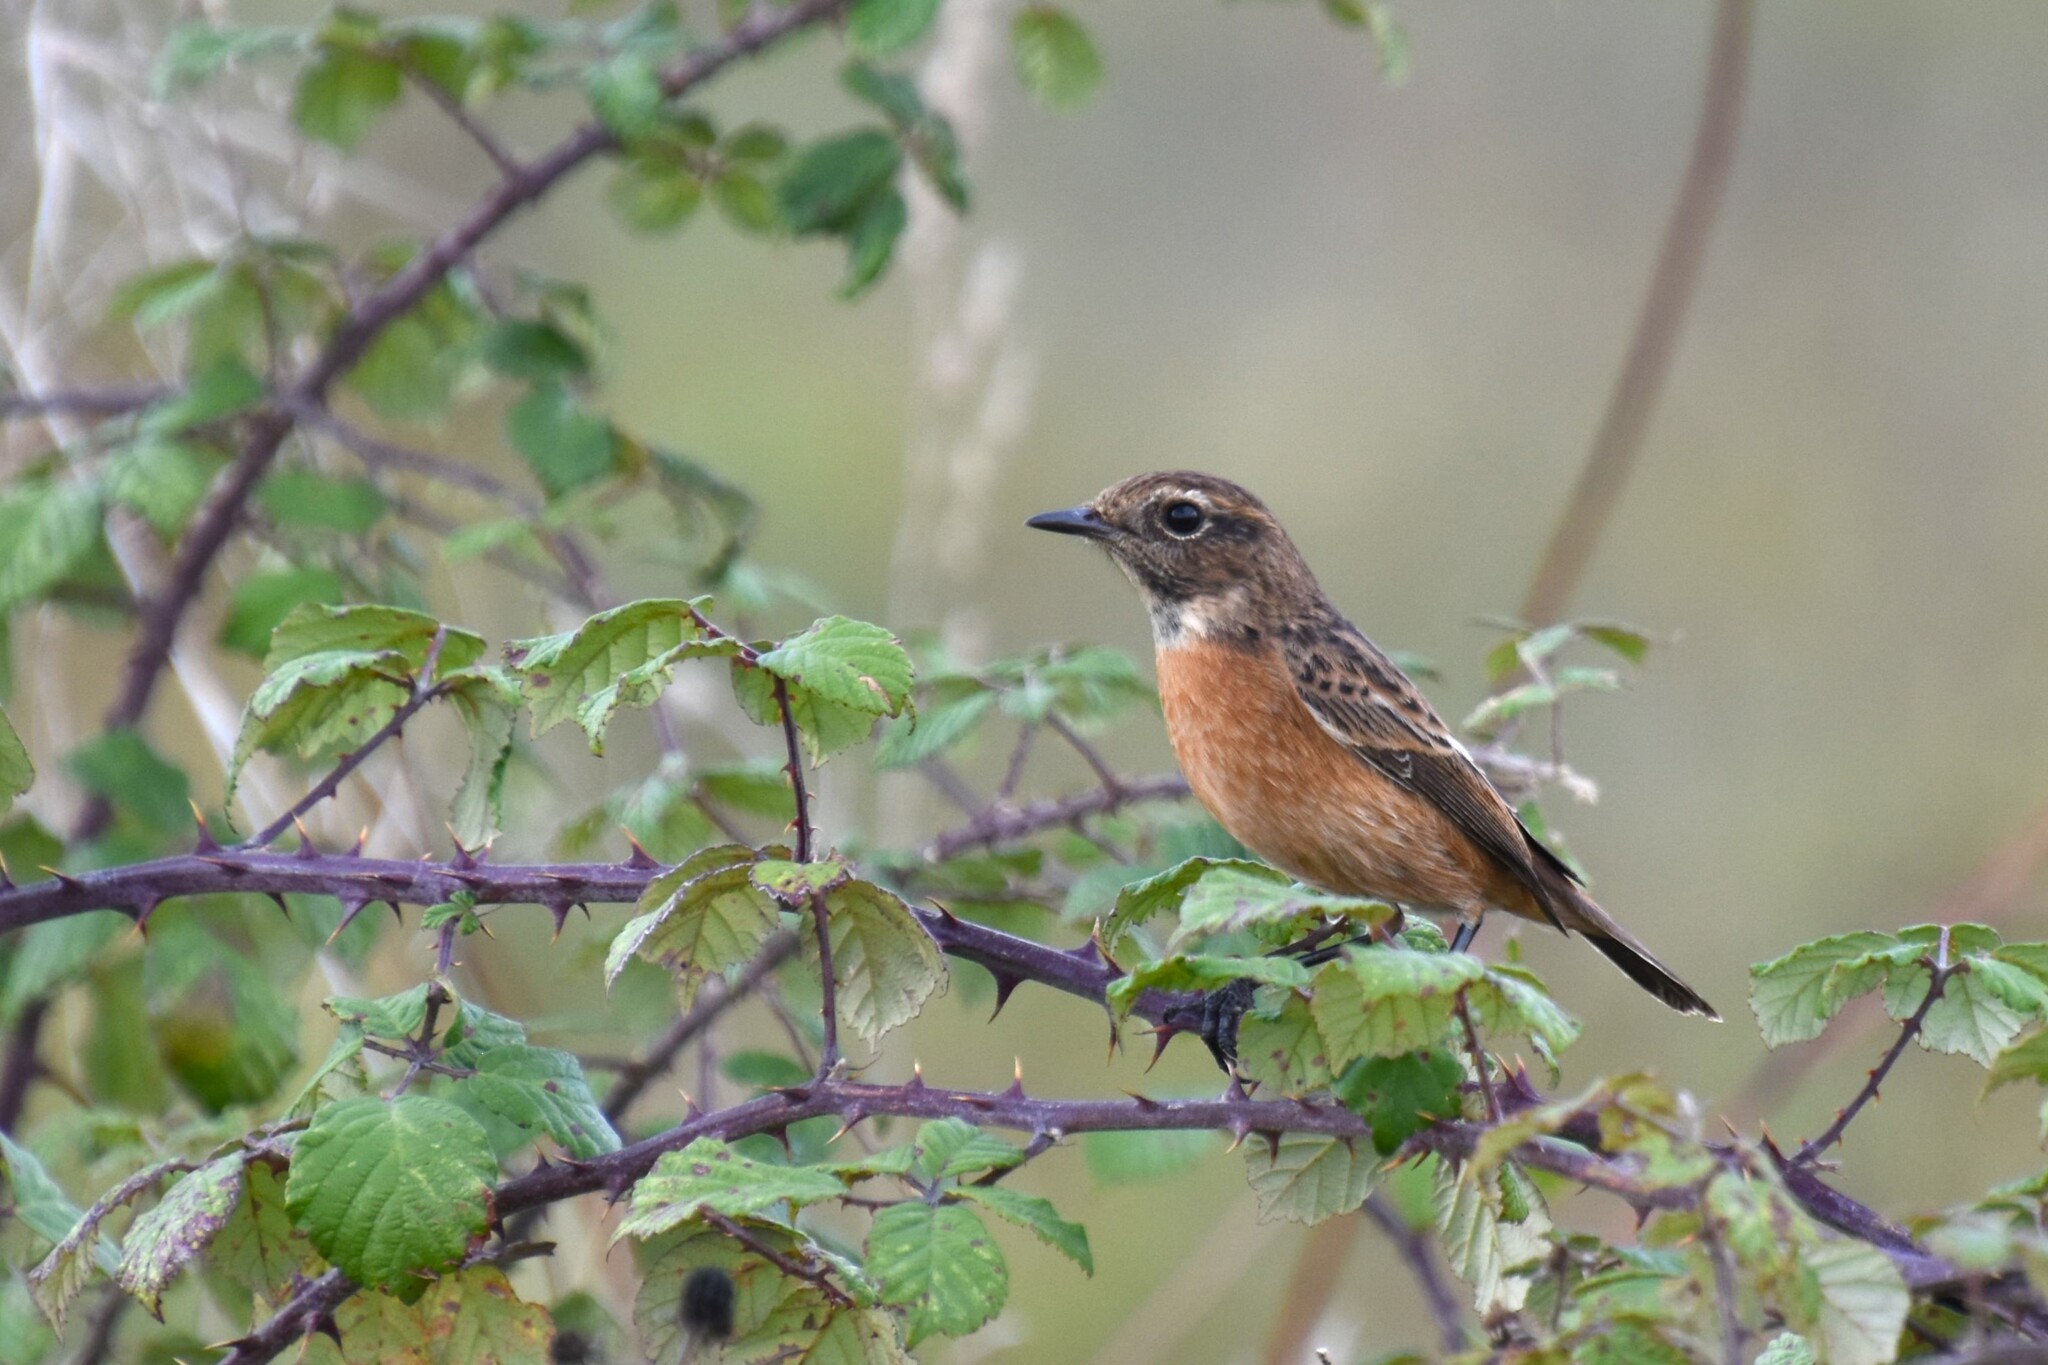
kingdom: Animalia
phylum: Chordata
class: Aves
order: Passeriformes
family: Muscicapidae
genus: Saxicola
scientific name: Saxicola rubicola
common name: European stonechat
